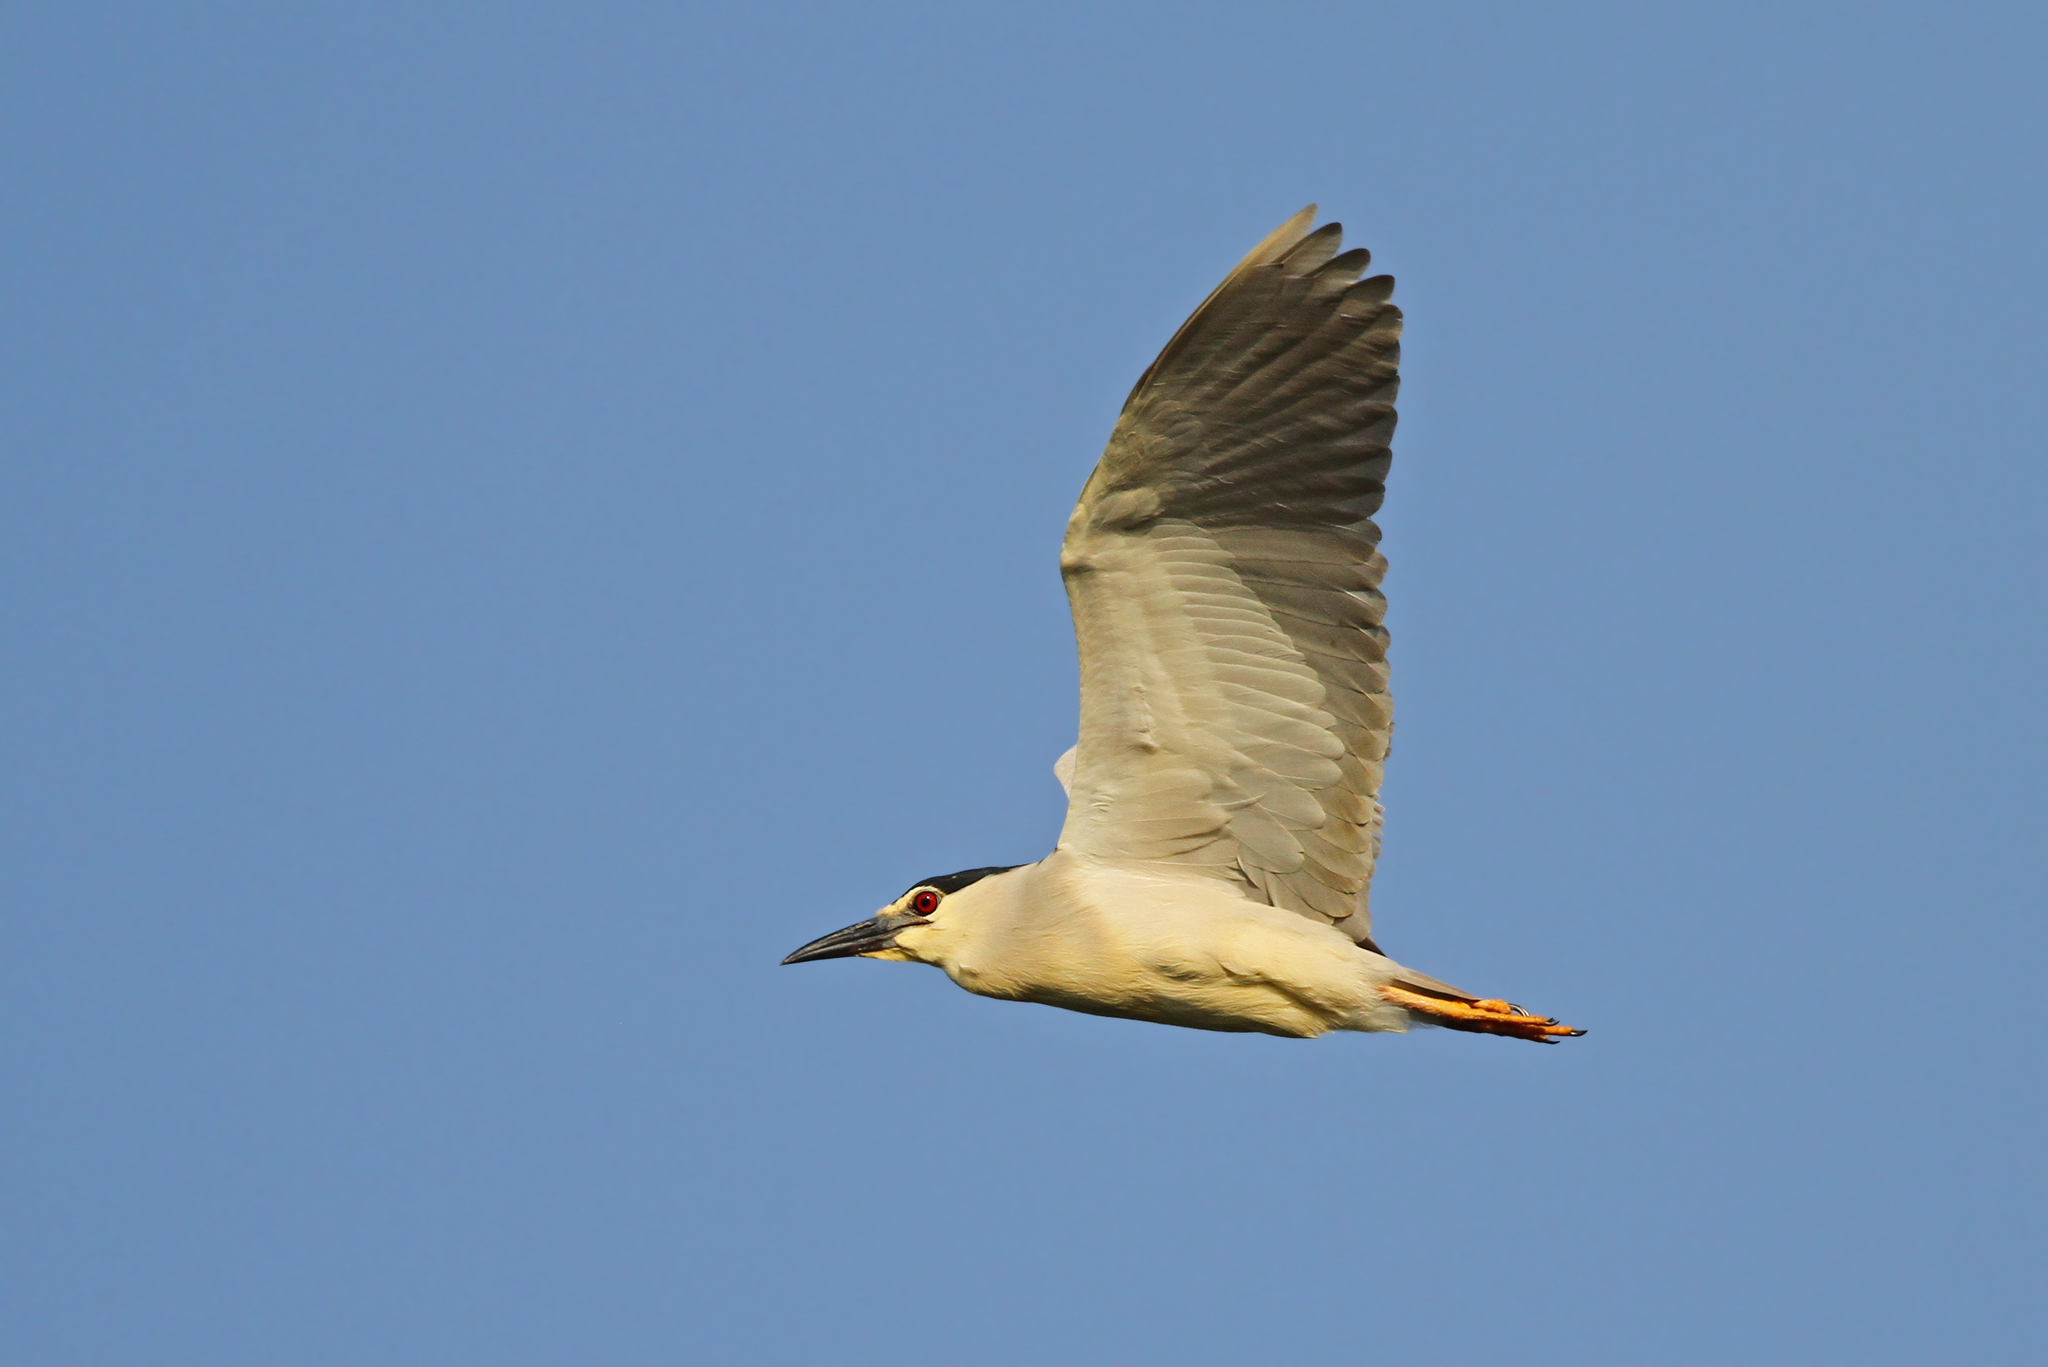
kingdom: Animalia
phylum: Chordata
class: Aves
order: Pelecaniformes
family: Ardeidae
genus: Nycticorax
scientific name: Nycticorax nycticorax
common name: Black-crowned night heron
